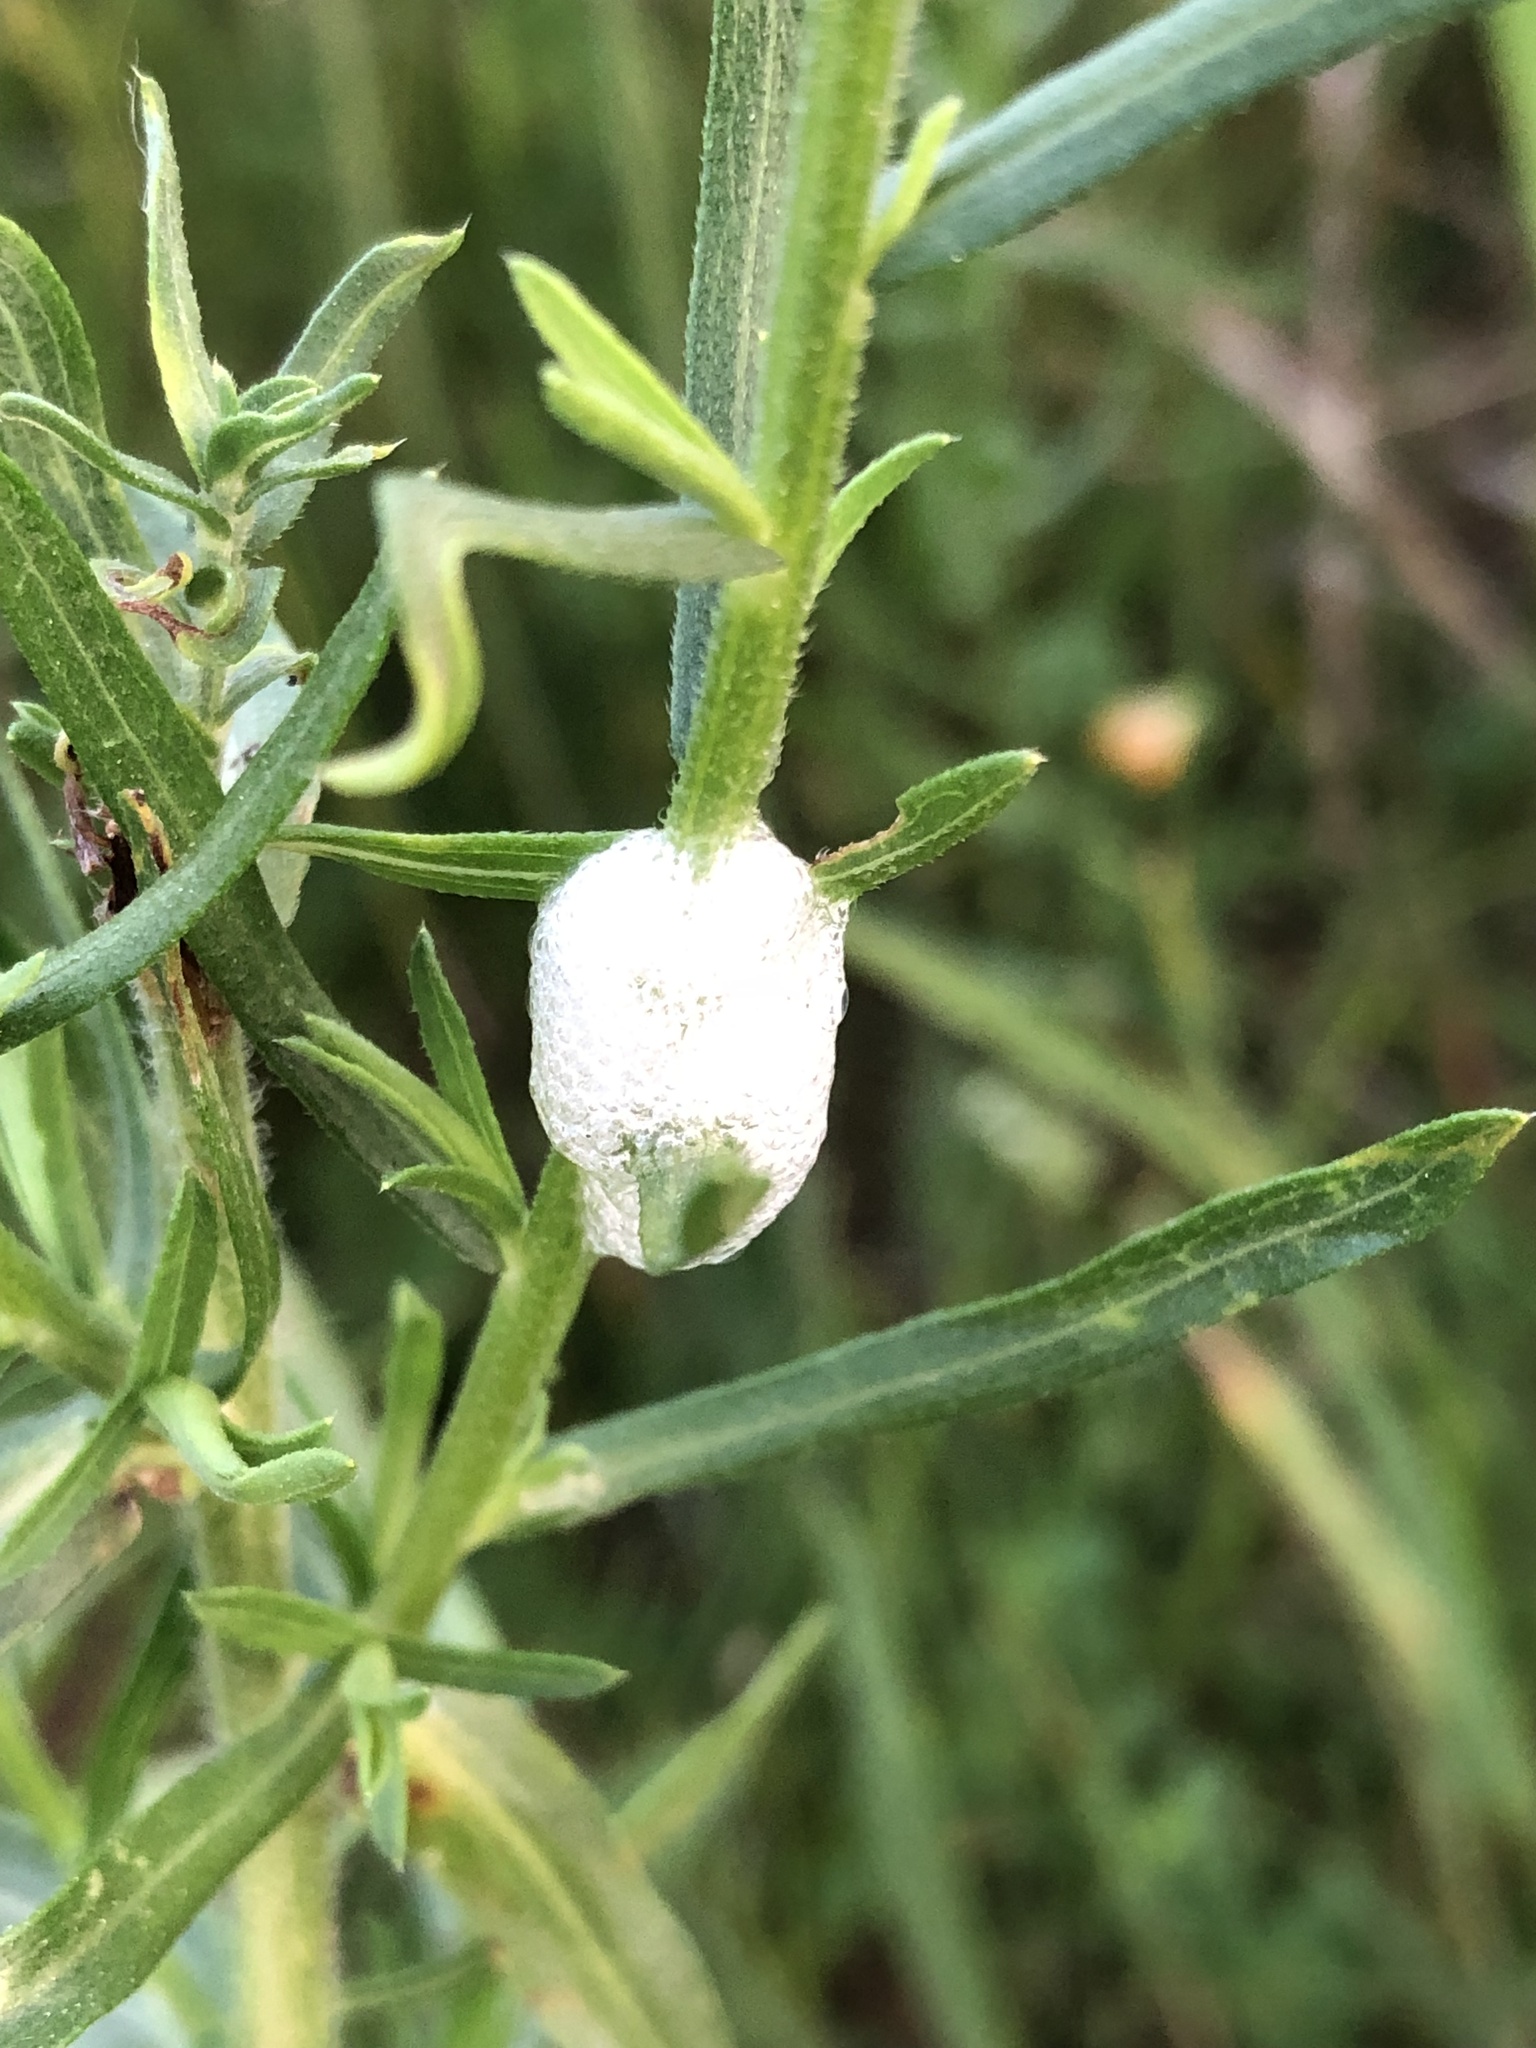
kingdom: Animalia
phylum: Arthropoda
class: Insecta
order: Hemiptera
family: Aphrophoridae
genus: Philaenus
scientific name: Philaenus spumarius
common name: Meadow spittlebug
